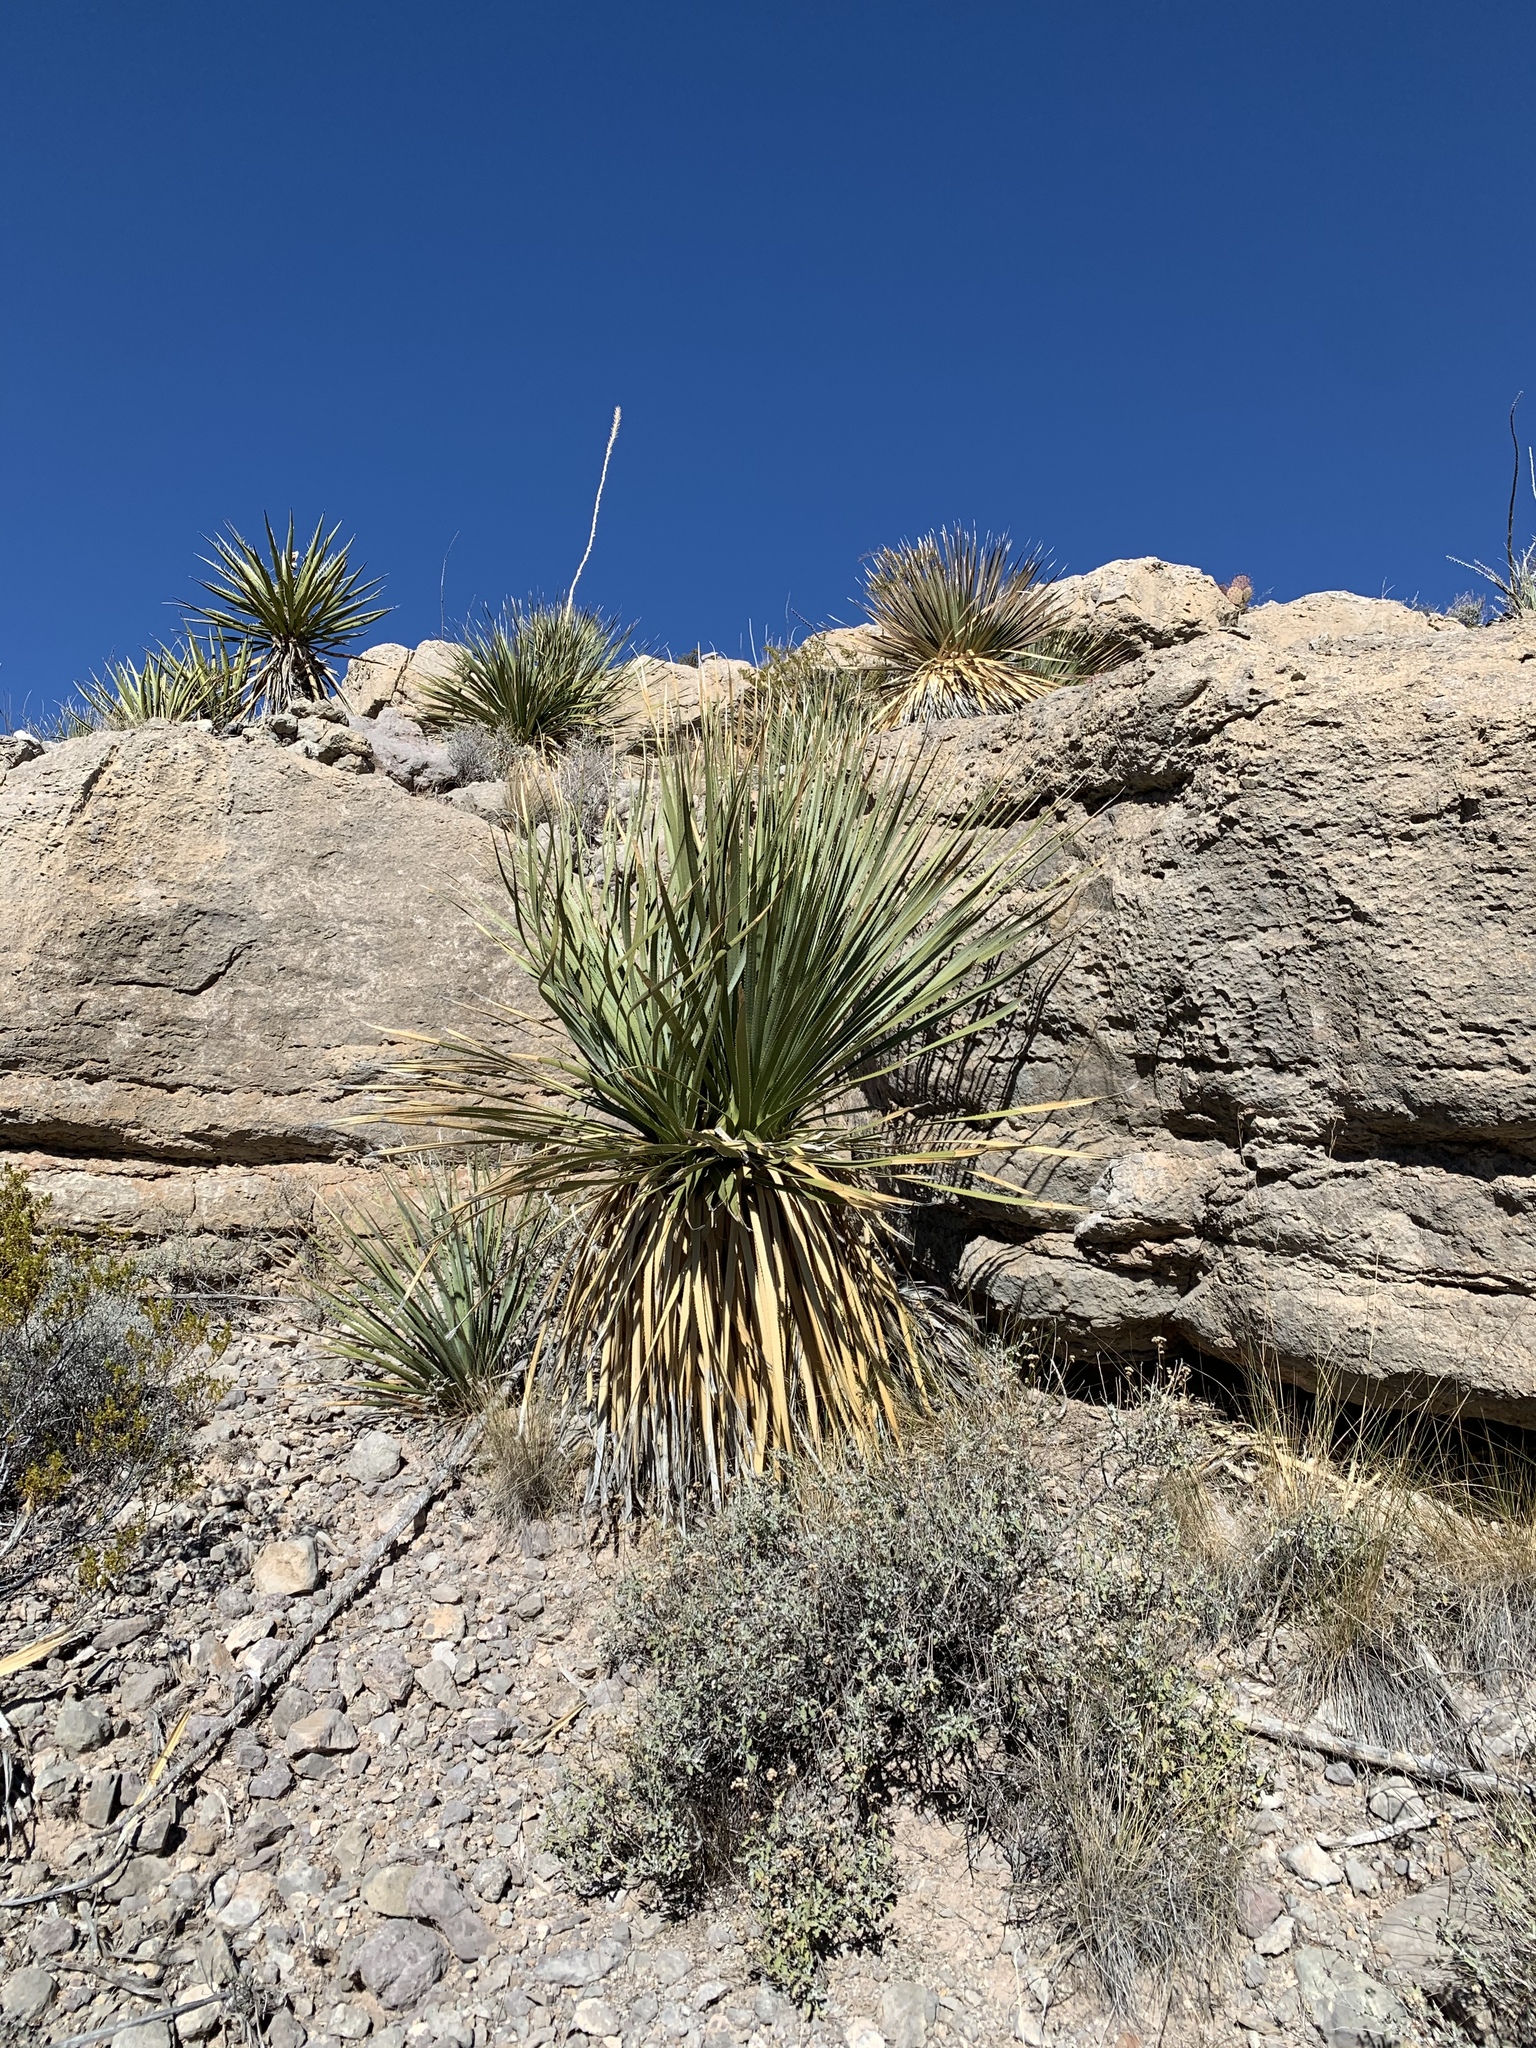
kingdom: Plantae
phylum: Tracheophyta
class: Liliopsida
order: Asparagales
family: Asparagaceae
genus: Dasylirion
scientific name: Dasylirion wheeleri
